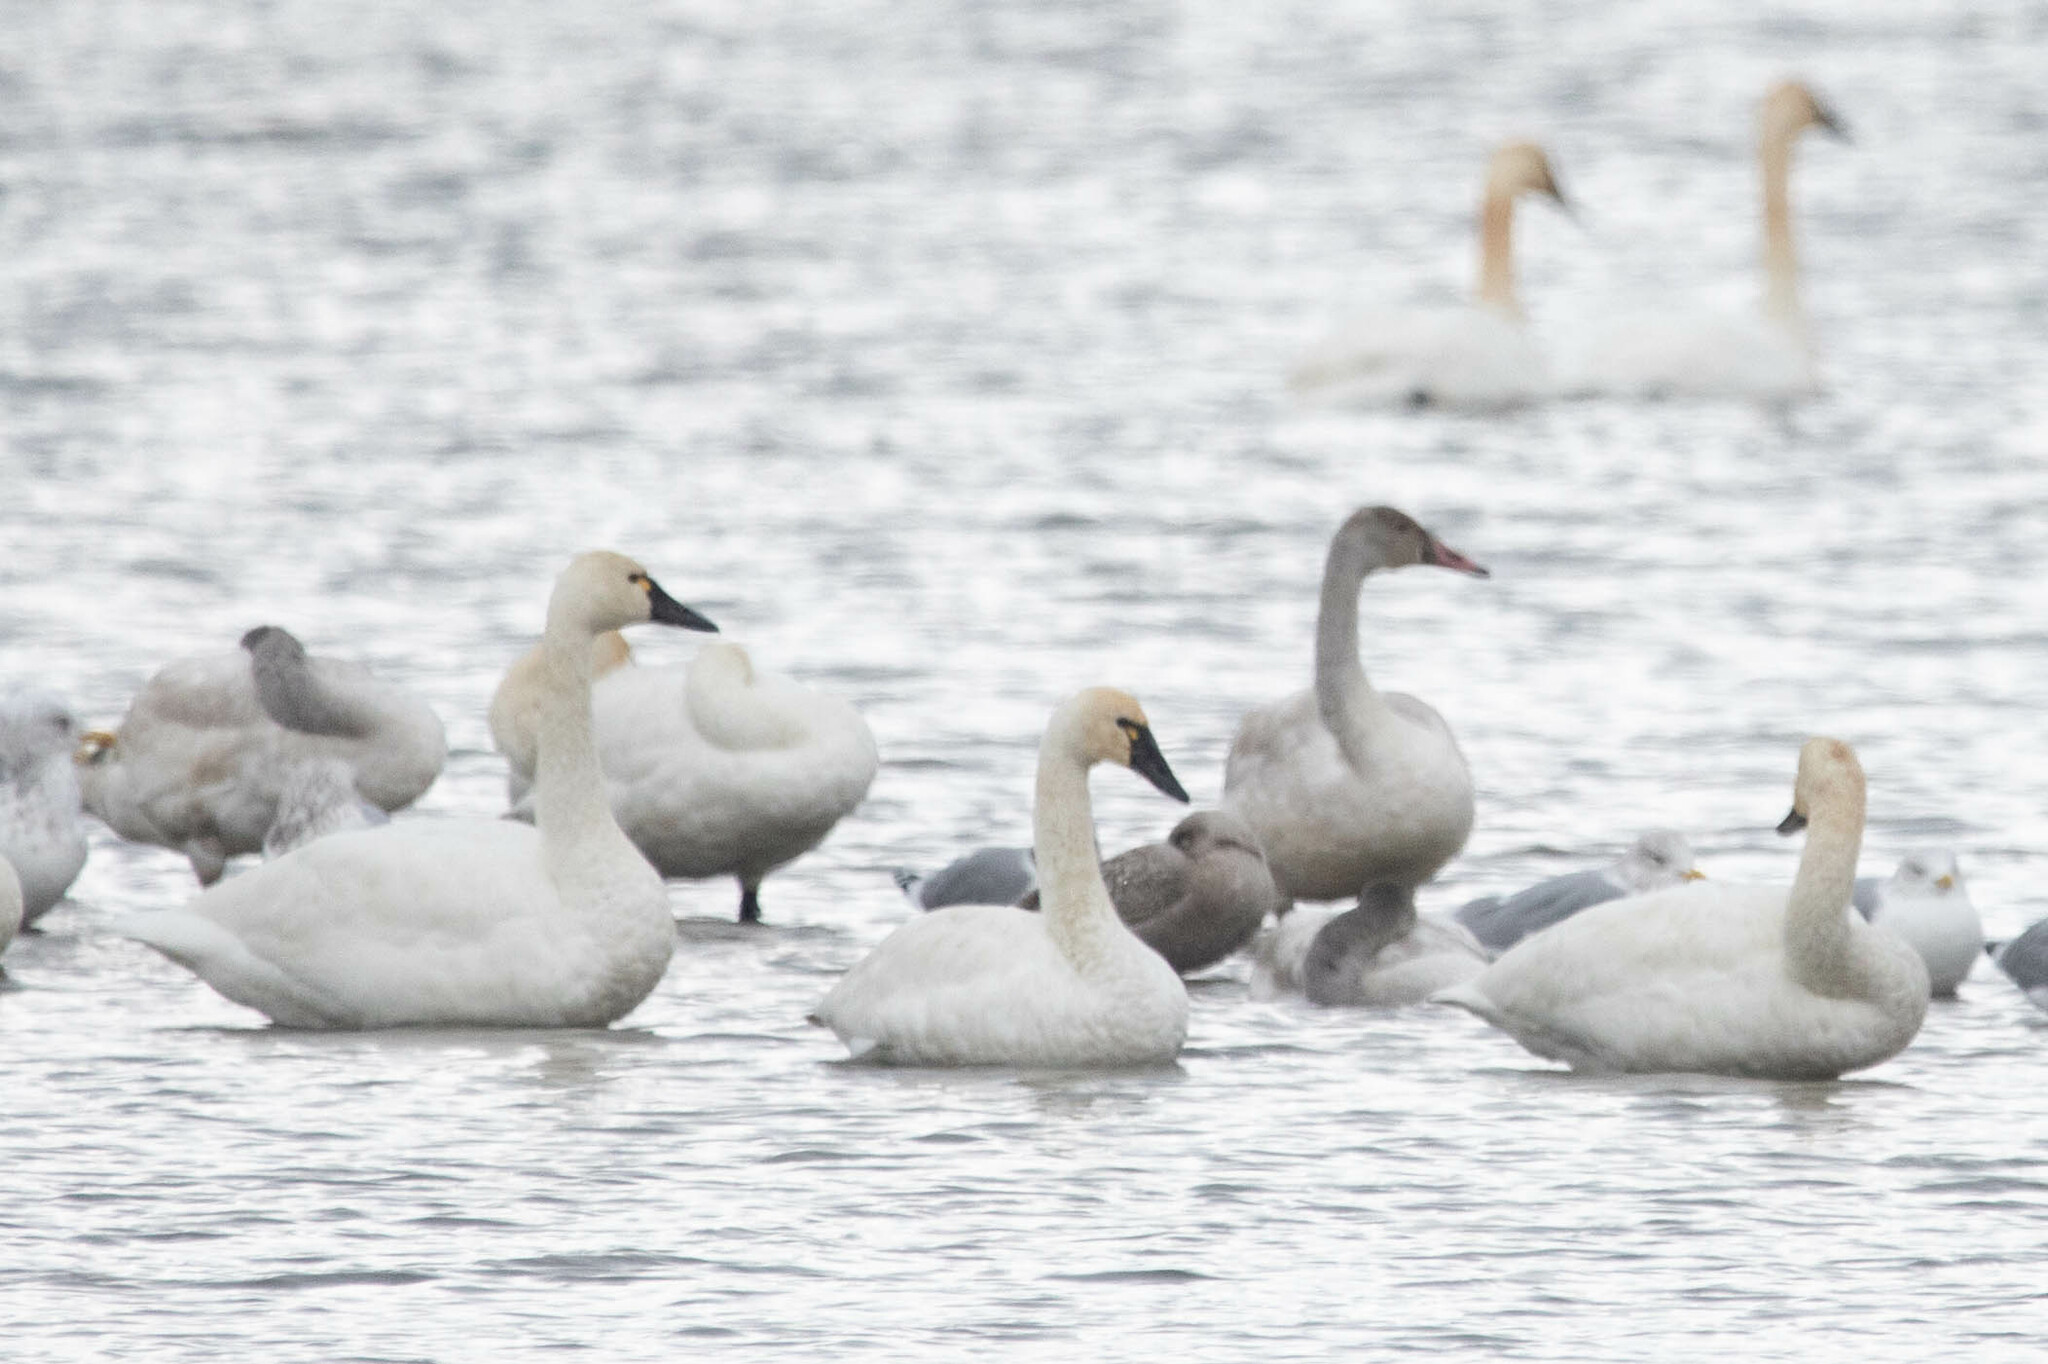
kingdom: Animalia
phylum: Chordata
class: Aves
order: Anseriformes
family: Anatidae
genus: Cygnus
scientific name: Cygnus columbianus
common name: Tundra swan
